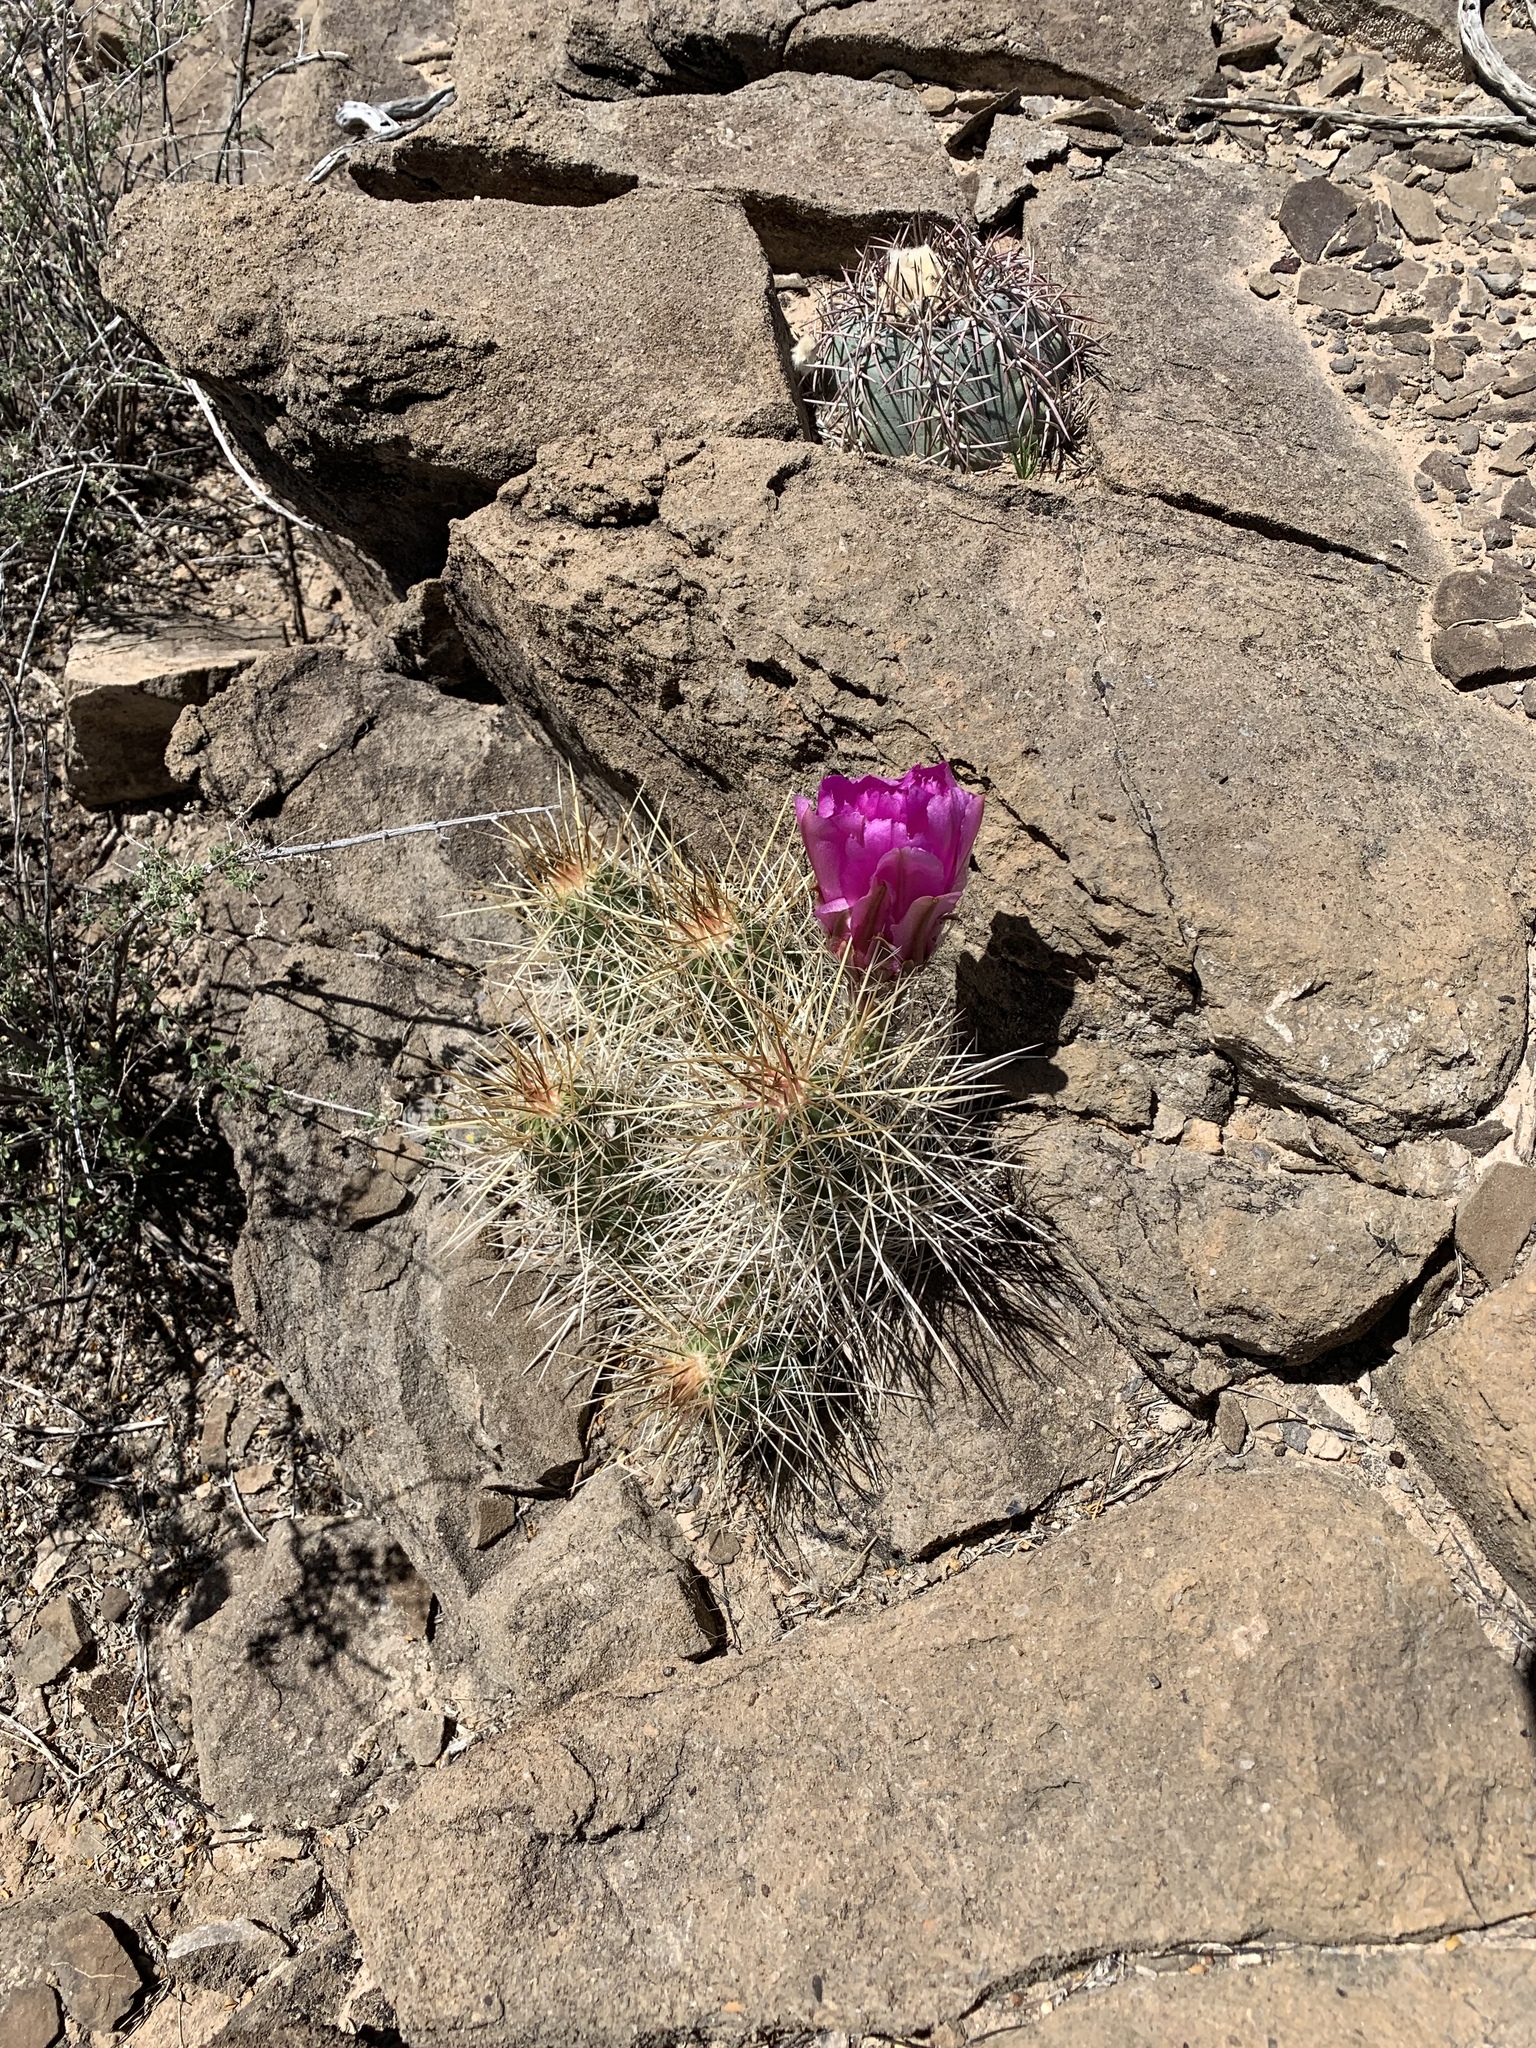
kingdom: Plantae
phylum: Tracheophyta
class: Magnoliopsida
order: Caryophyllales
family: Cactaceae
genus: Echinocereus
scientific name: Echinocereus stramineus
